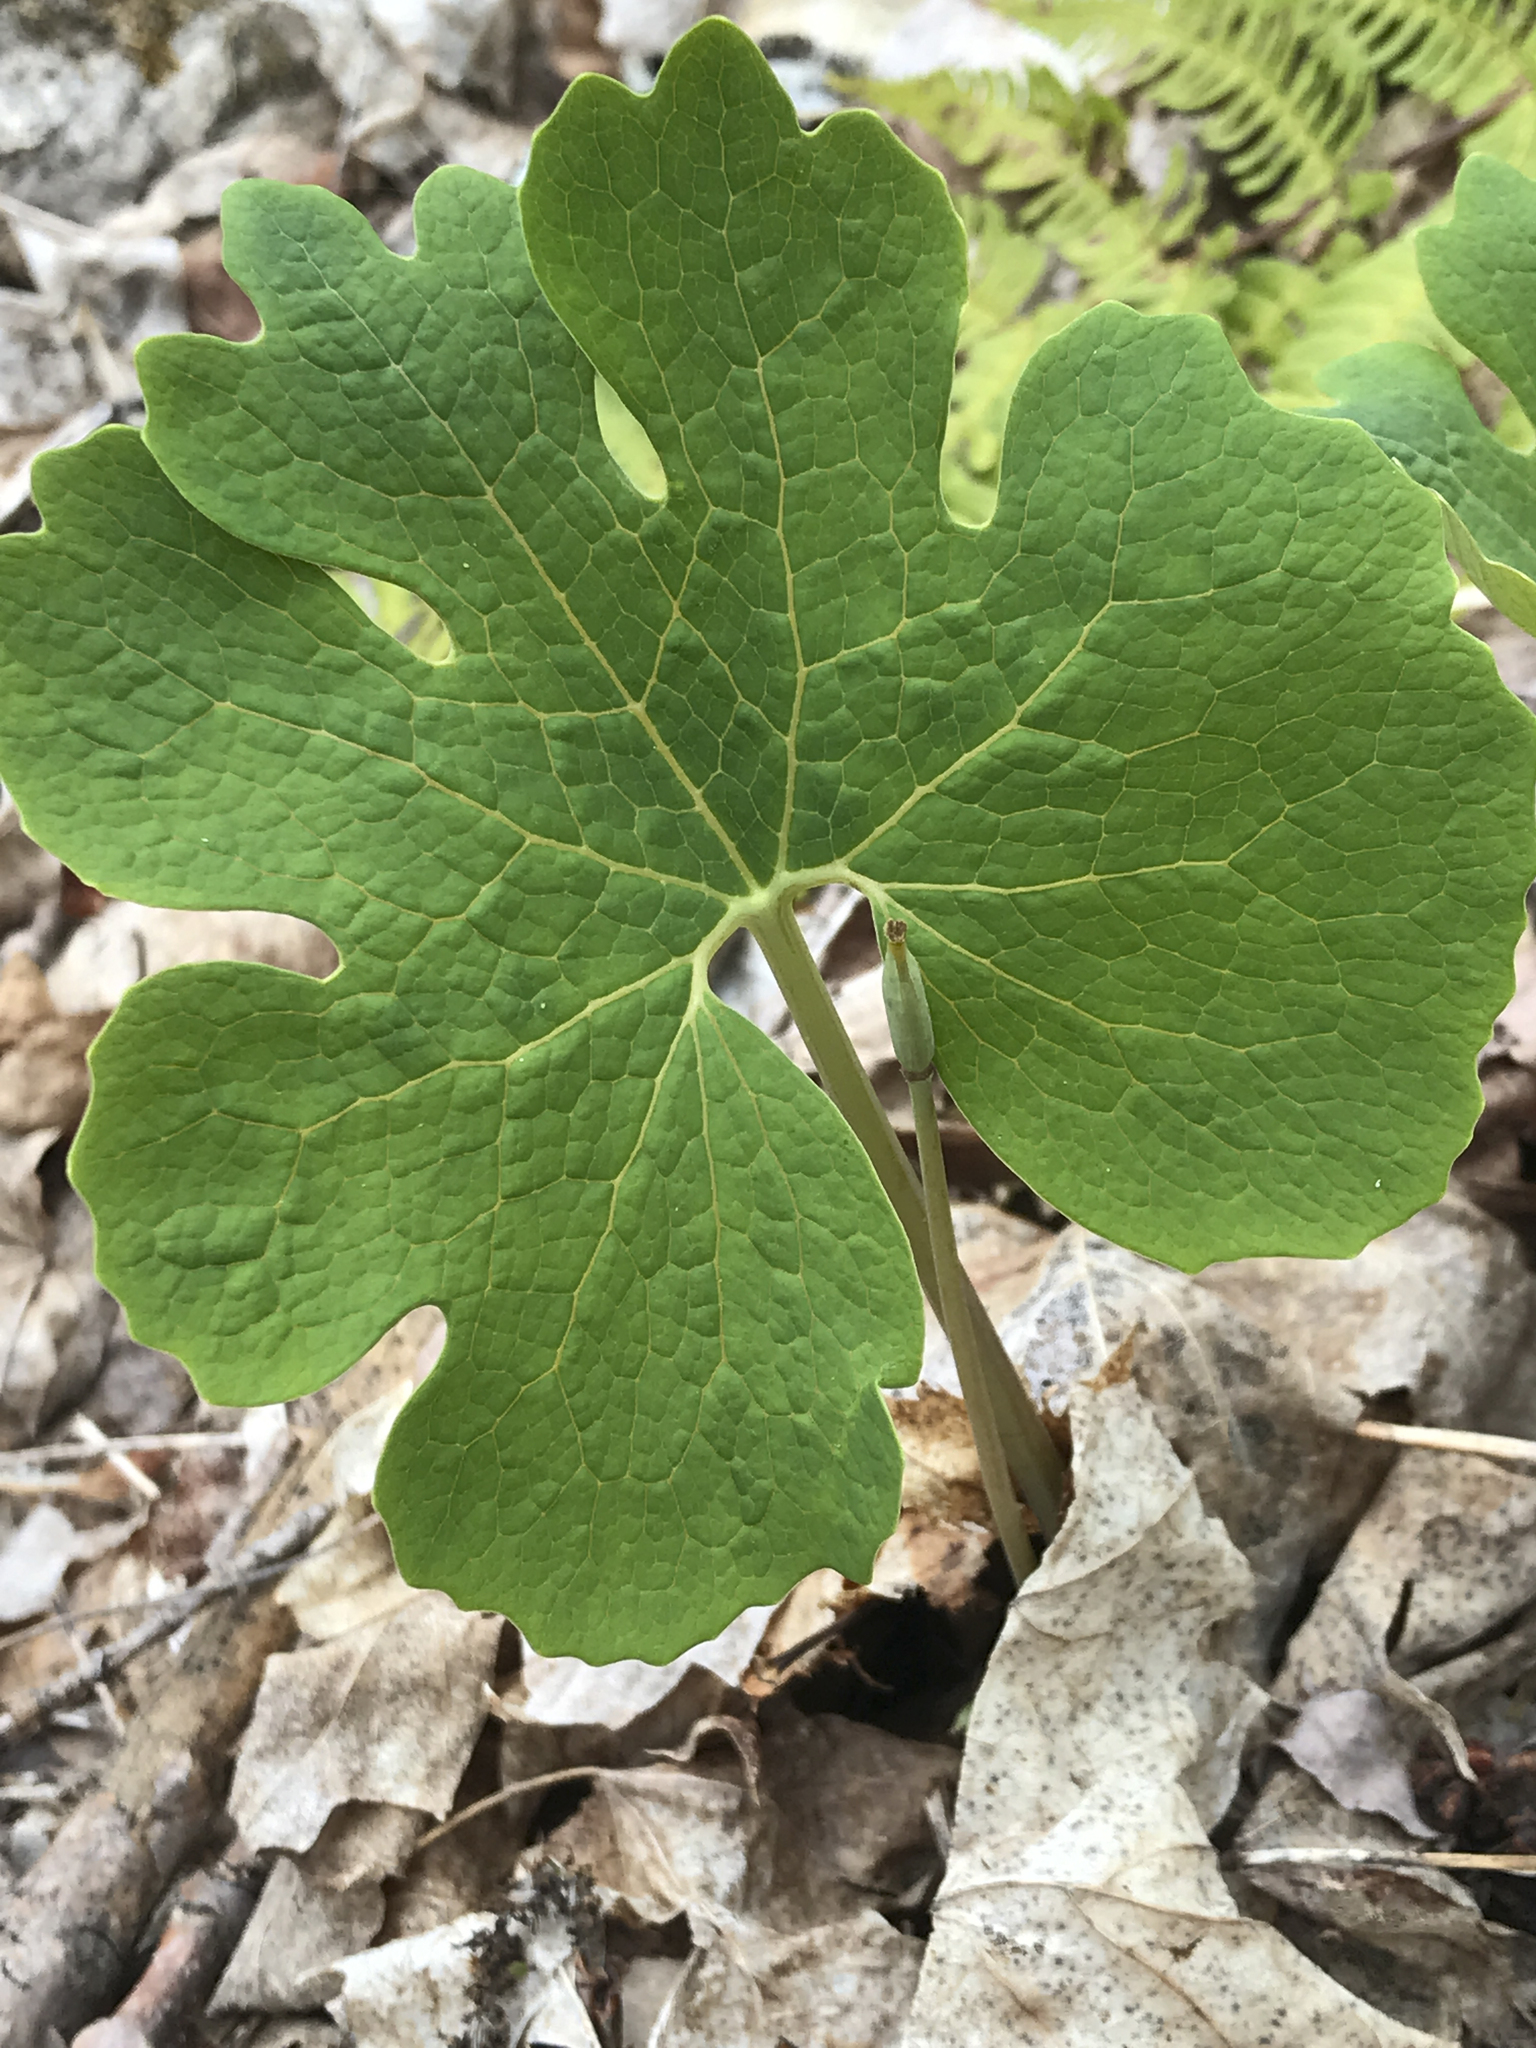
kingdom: Plantae
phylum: Tracheophyta
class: Magnoliopsida
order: Ranunculales
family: Papaveraceae
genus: Sanguinaria
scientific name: Sanguinaria canadensis
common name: Bloodroot
